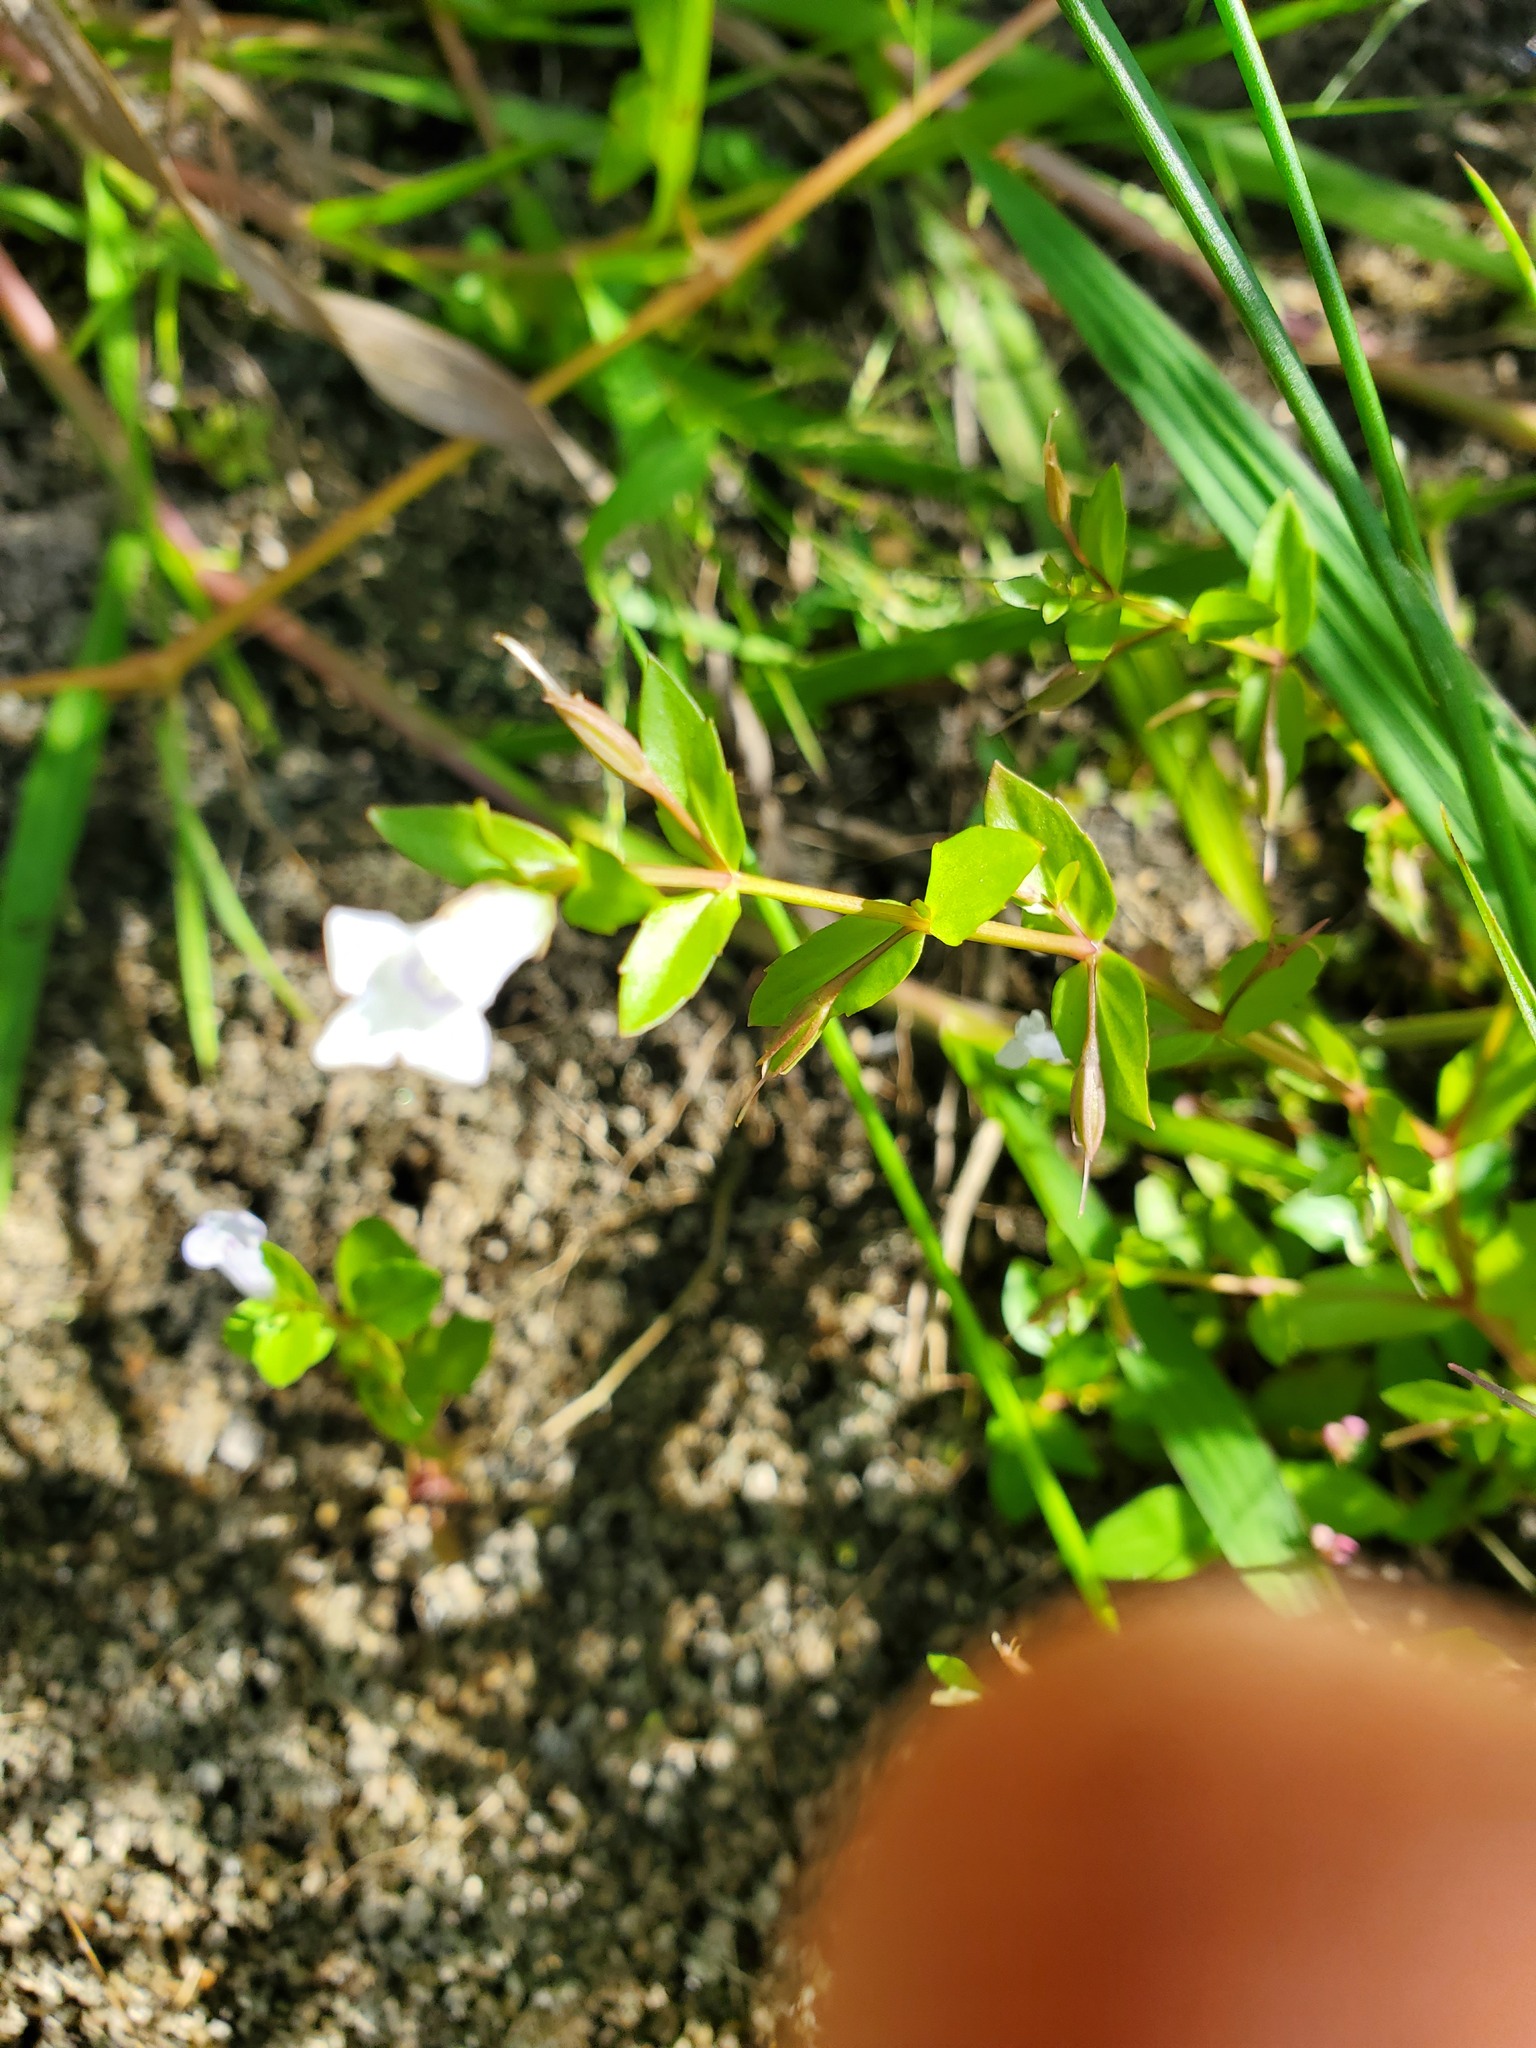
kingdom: Plantae
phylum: Tracheophyta
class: Magnoliopsida
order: Lamiales
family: Linderniaceae
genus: Lindernia
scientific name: Lindernia dubia
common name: Annual false pimpernel
